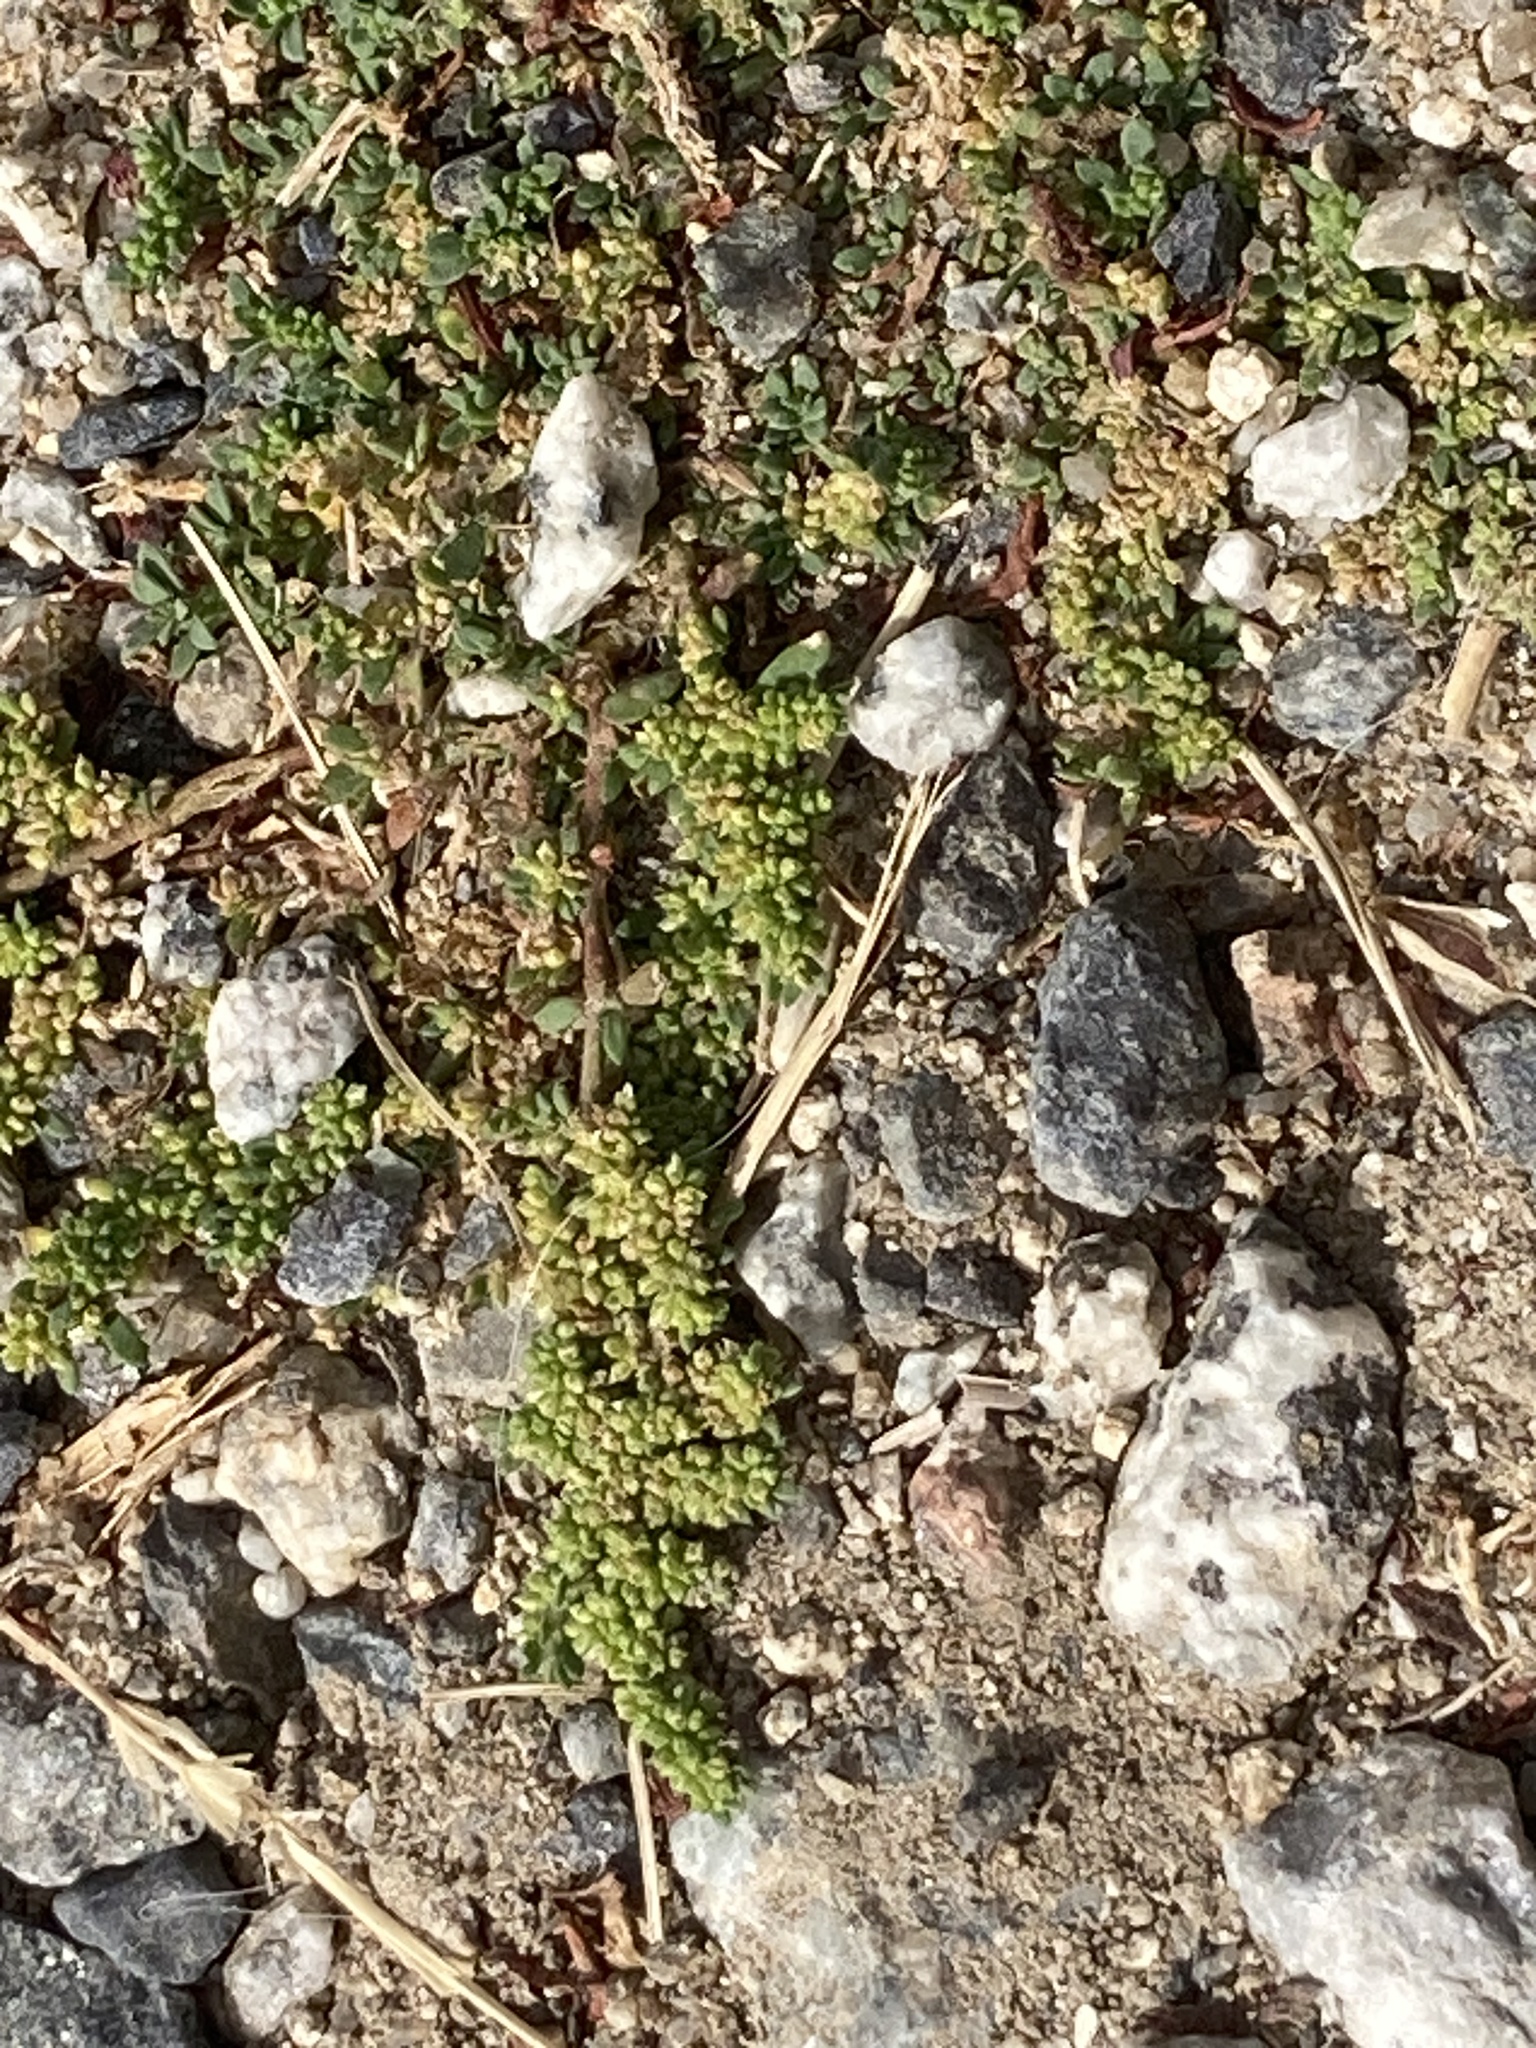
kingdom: Plantae
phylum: Tracheophyta
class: Magnoliopsida
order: Caryophyllales
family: Caryophyllaceae
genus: Herniaria
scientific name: Herniaria glabra
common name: Smooth rupturewort
